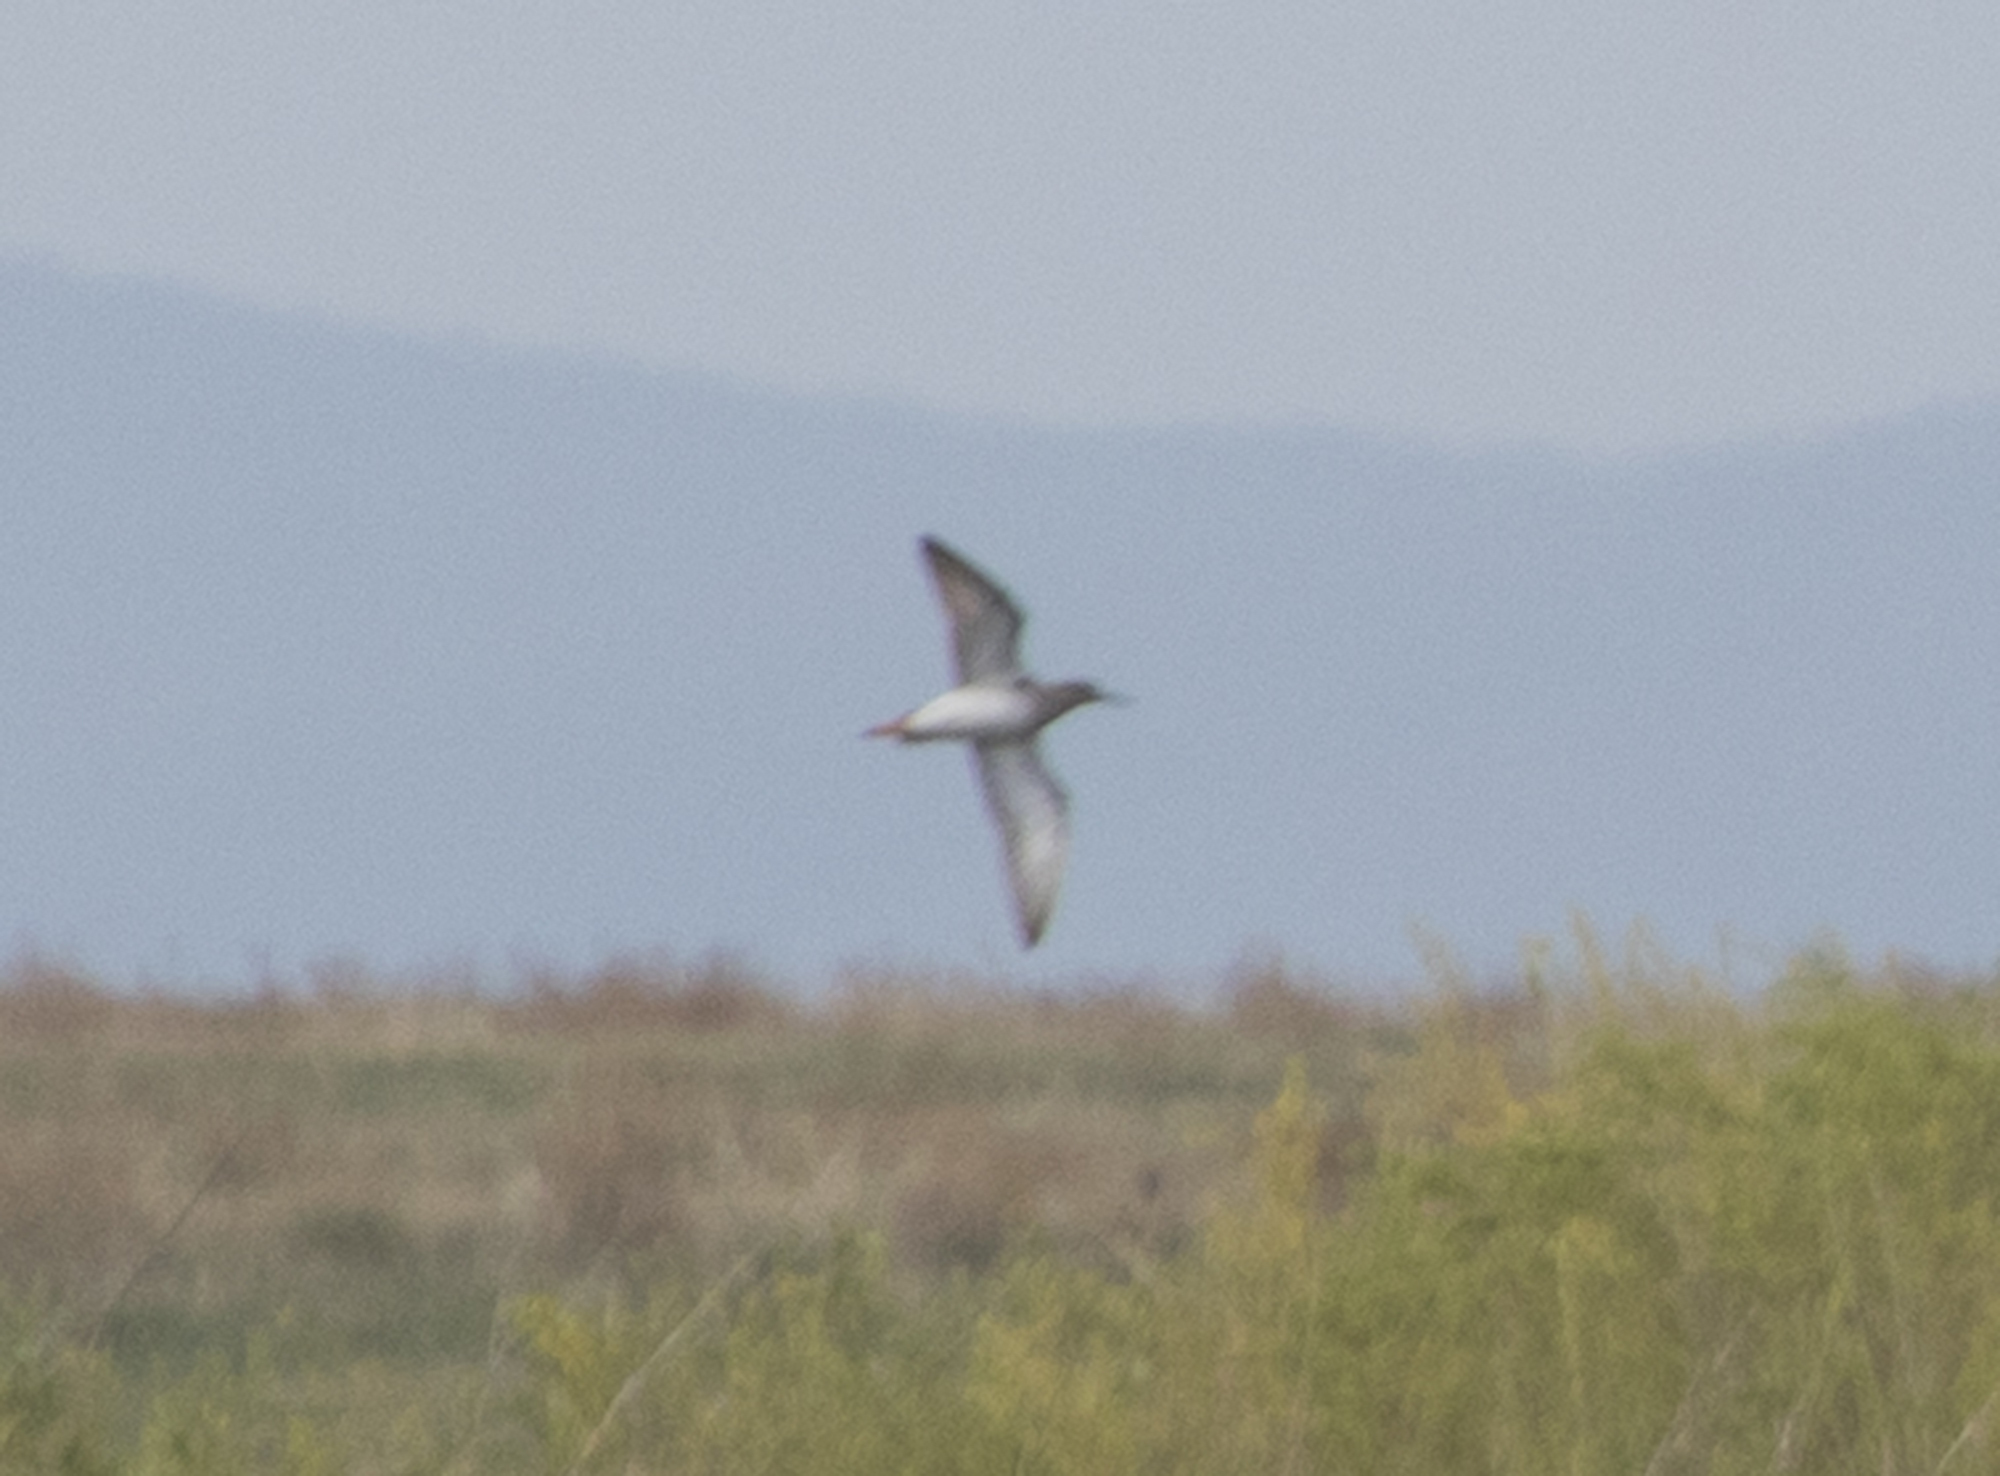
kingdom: Animalia
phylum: Chordata
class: Aves
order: Charadriiformes
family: Scolopacidae
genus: Tringa
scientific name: Tringa totanus
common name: Common redshank
